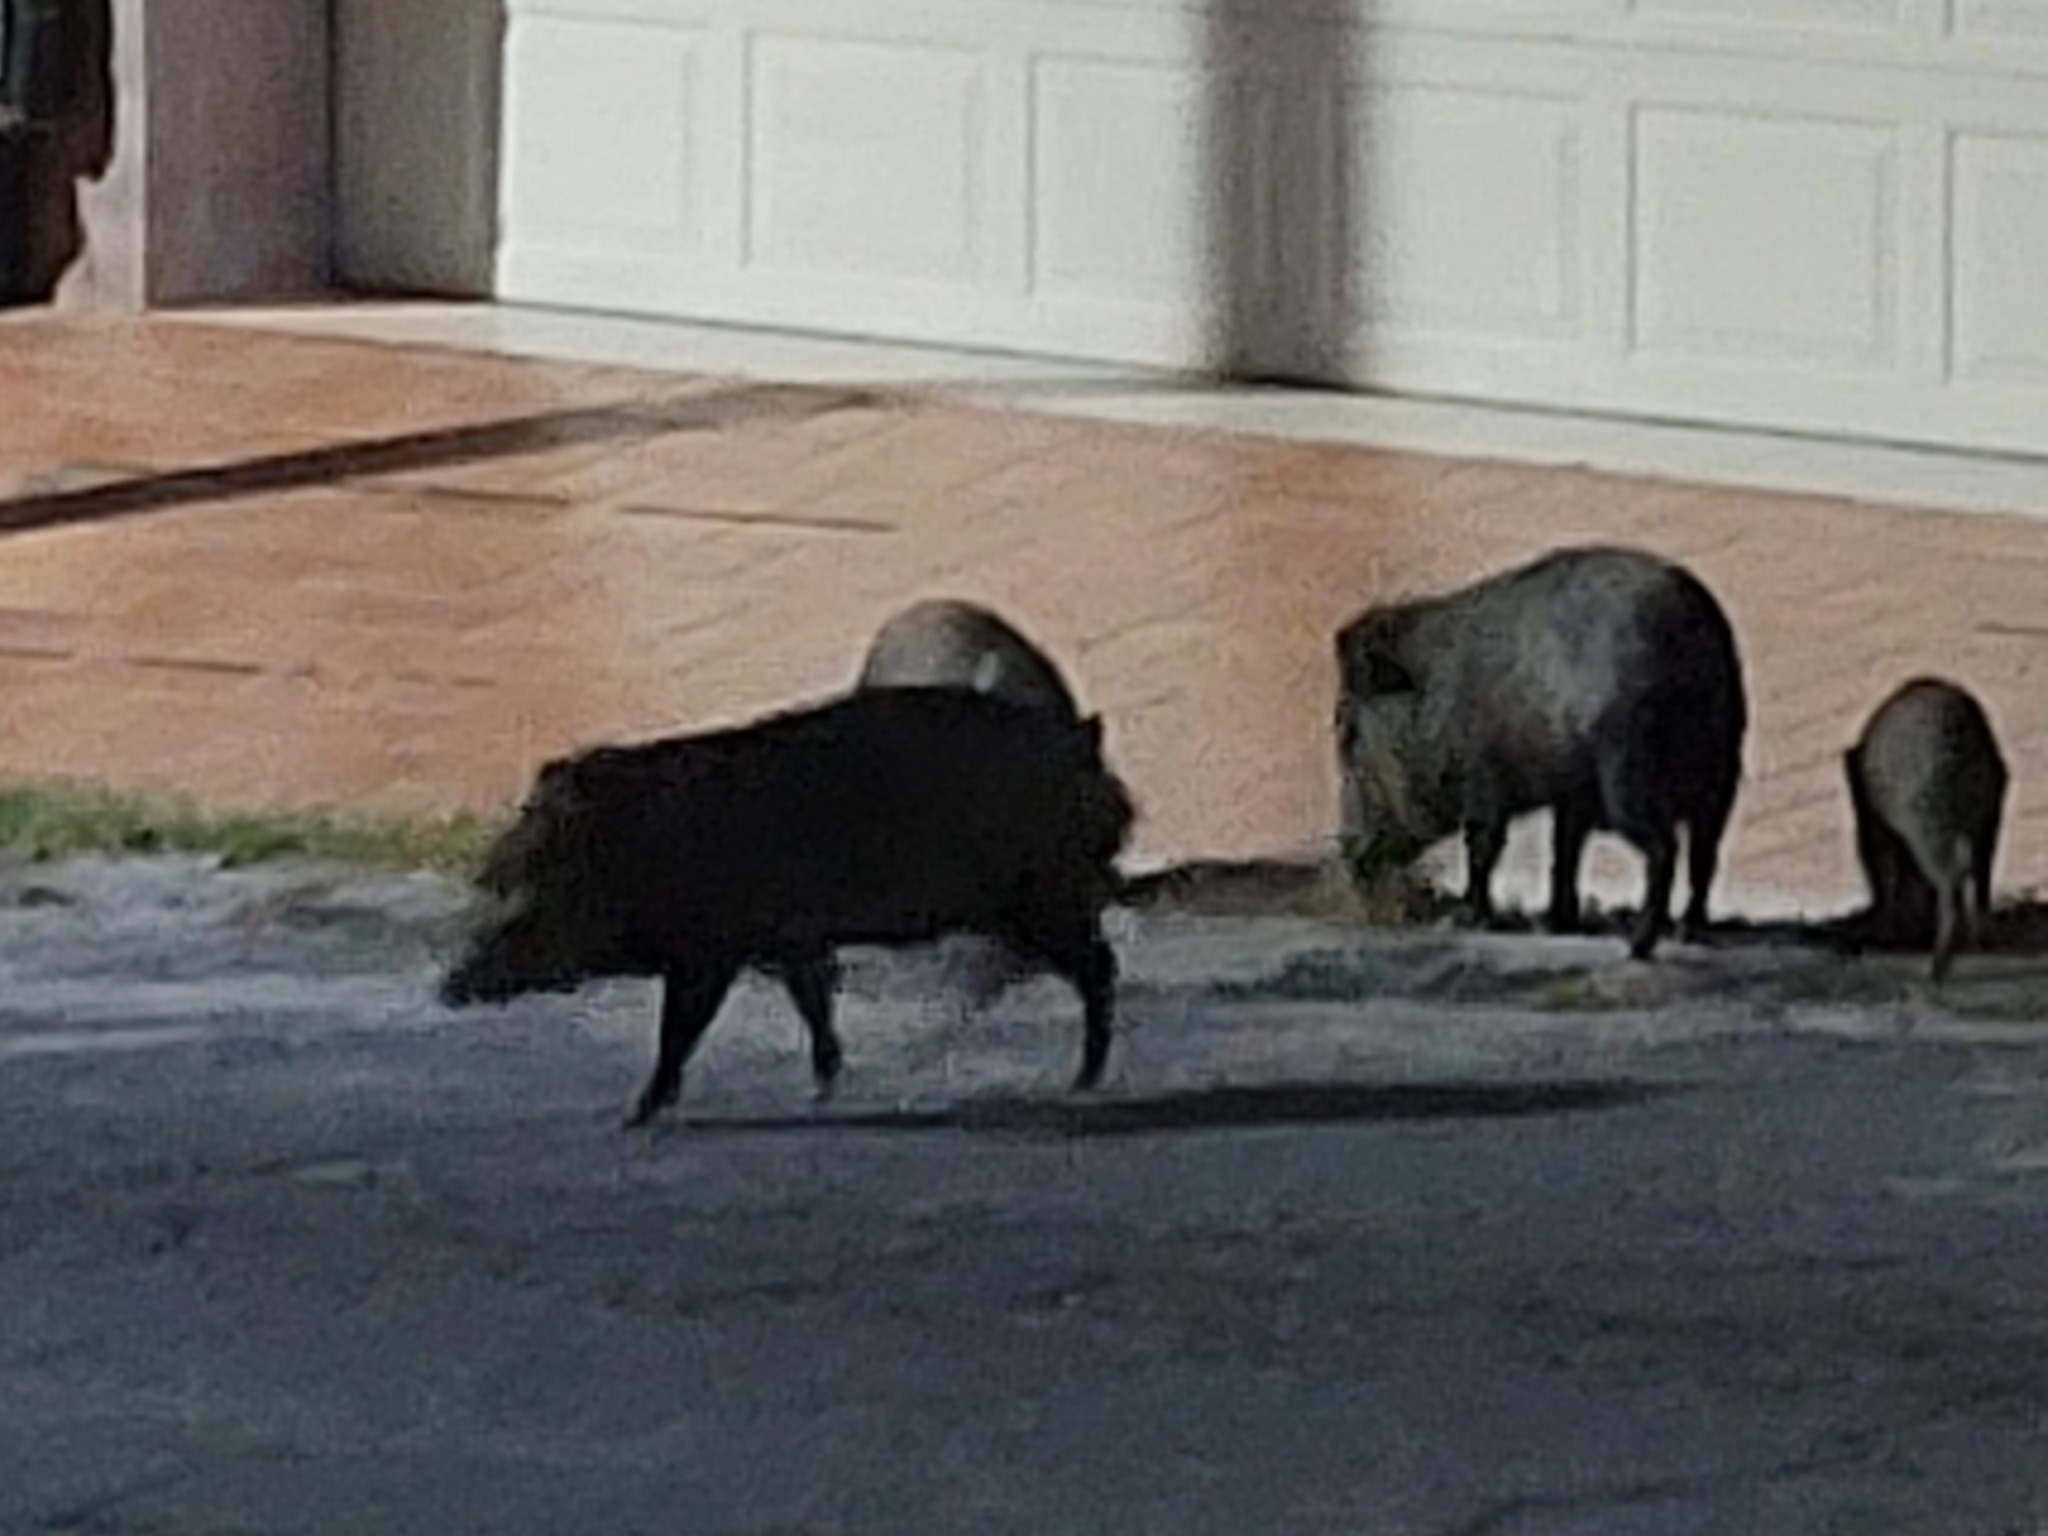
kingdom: Animalia
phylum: Chordata
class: Mammalia
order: Artiodactyla
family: Tayassuidae
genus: Pecari
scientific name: Pecari tajacu
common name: Collared peccary
